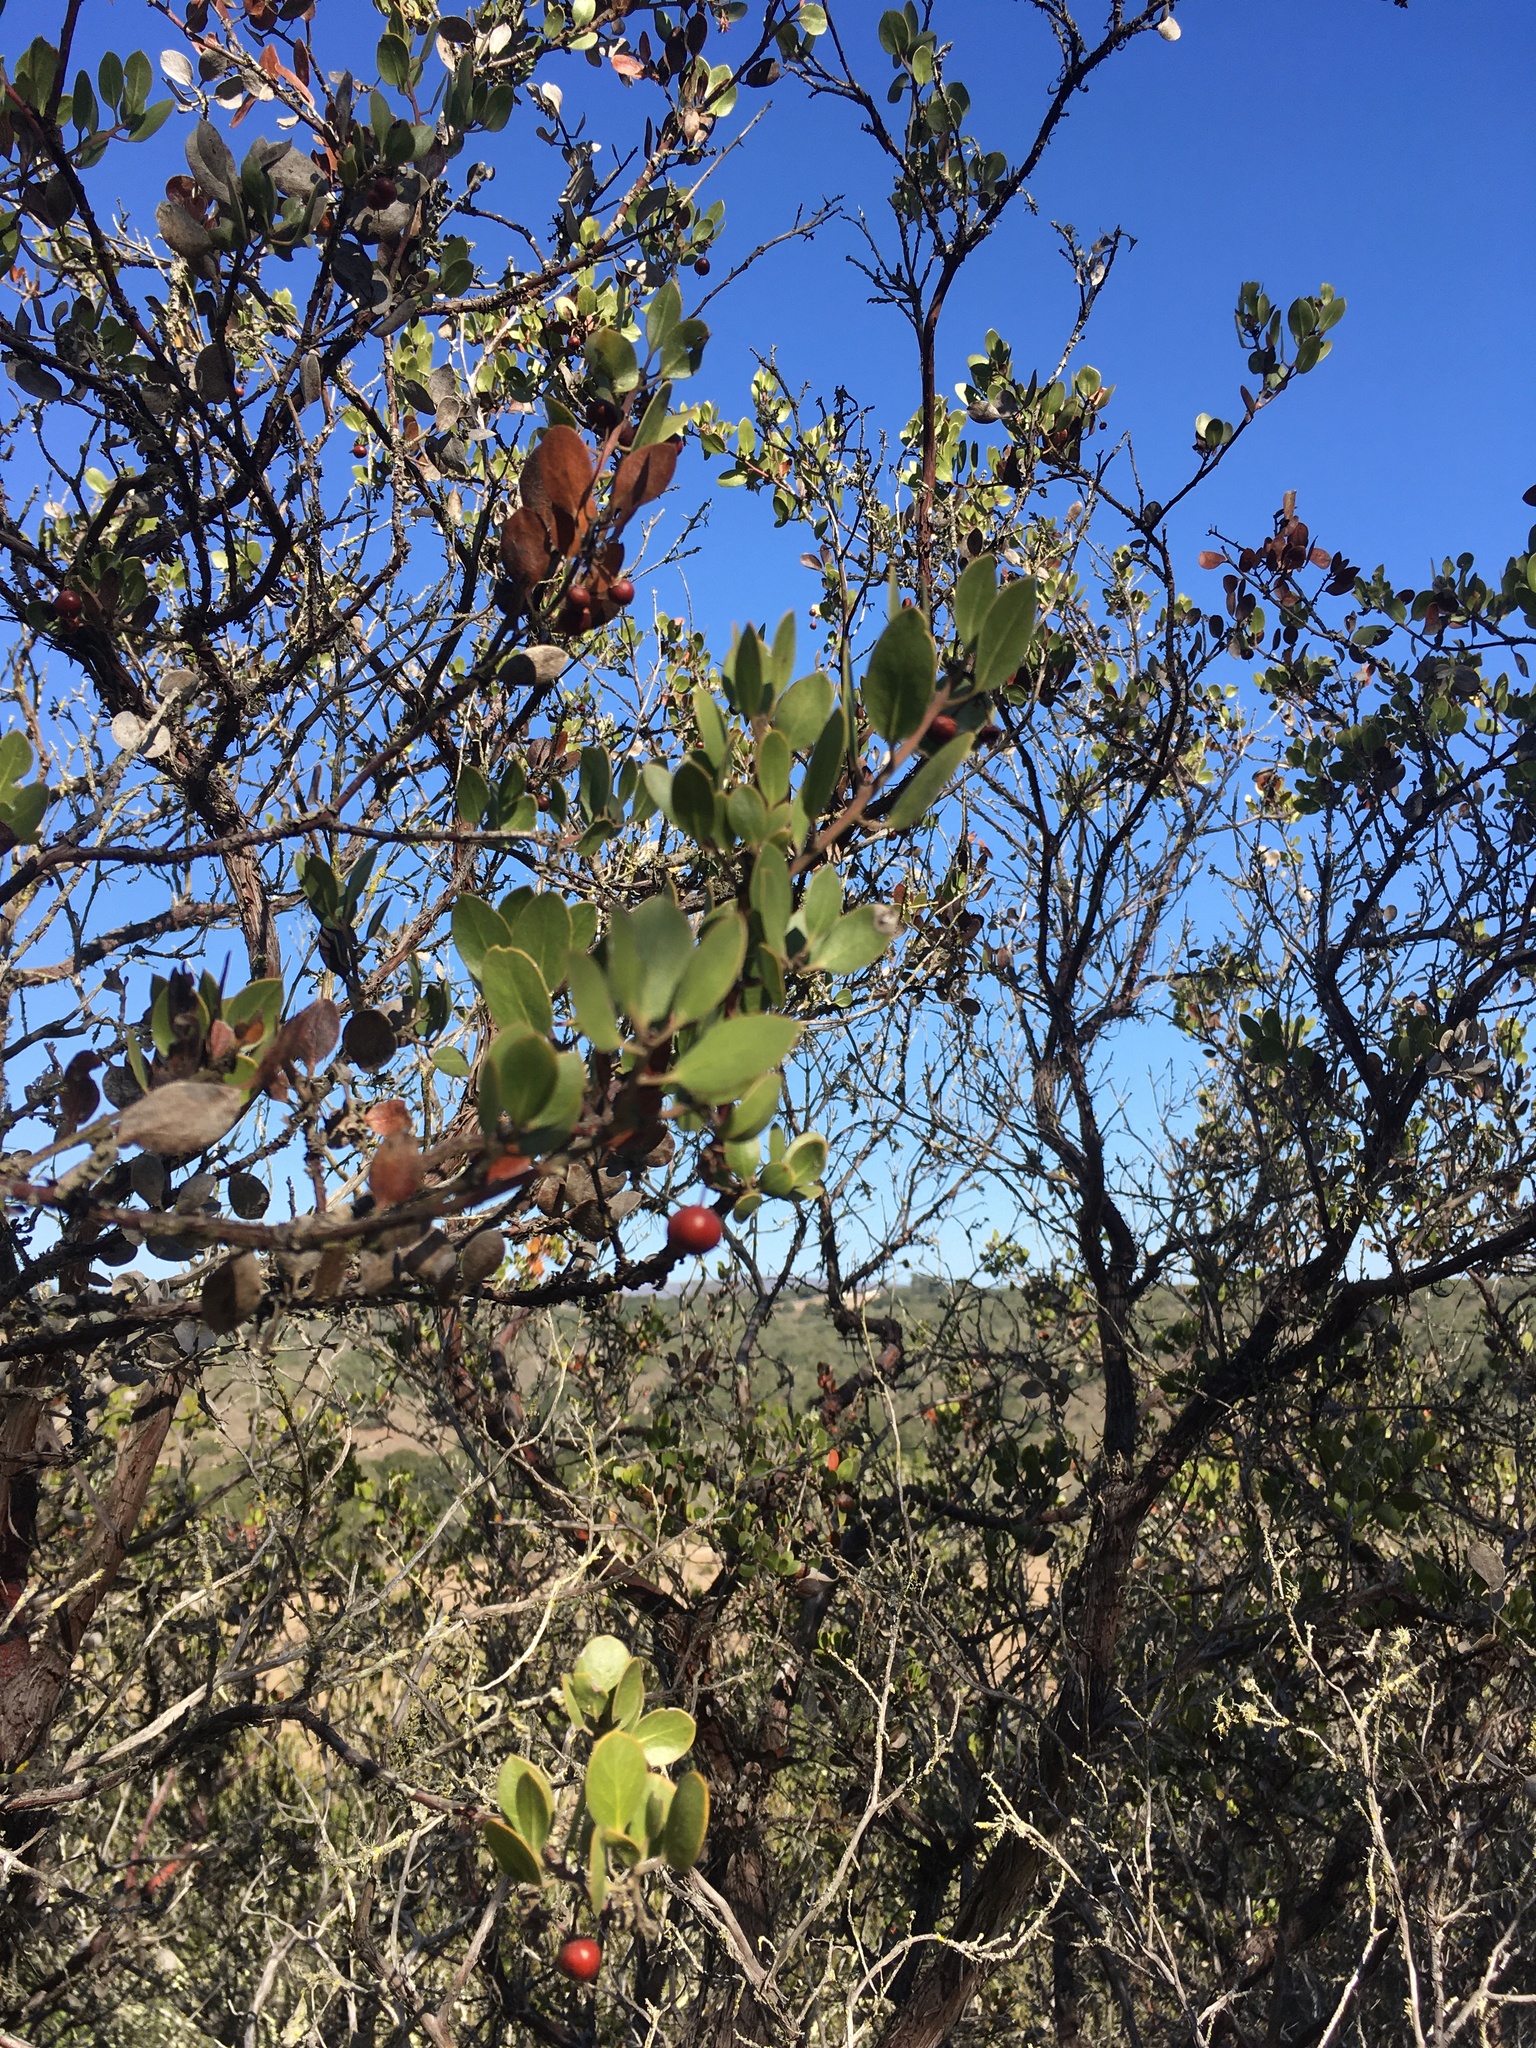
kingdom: Plantae
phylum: Tracheophyta
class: Magnoliopsida
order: Ericales
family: Ericaceae
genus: Arctostaphylos
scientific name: Arctostaphylos rudis
